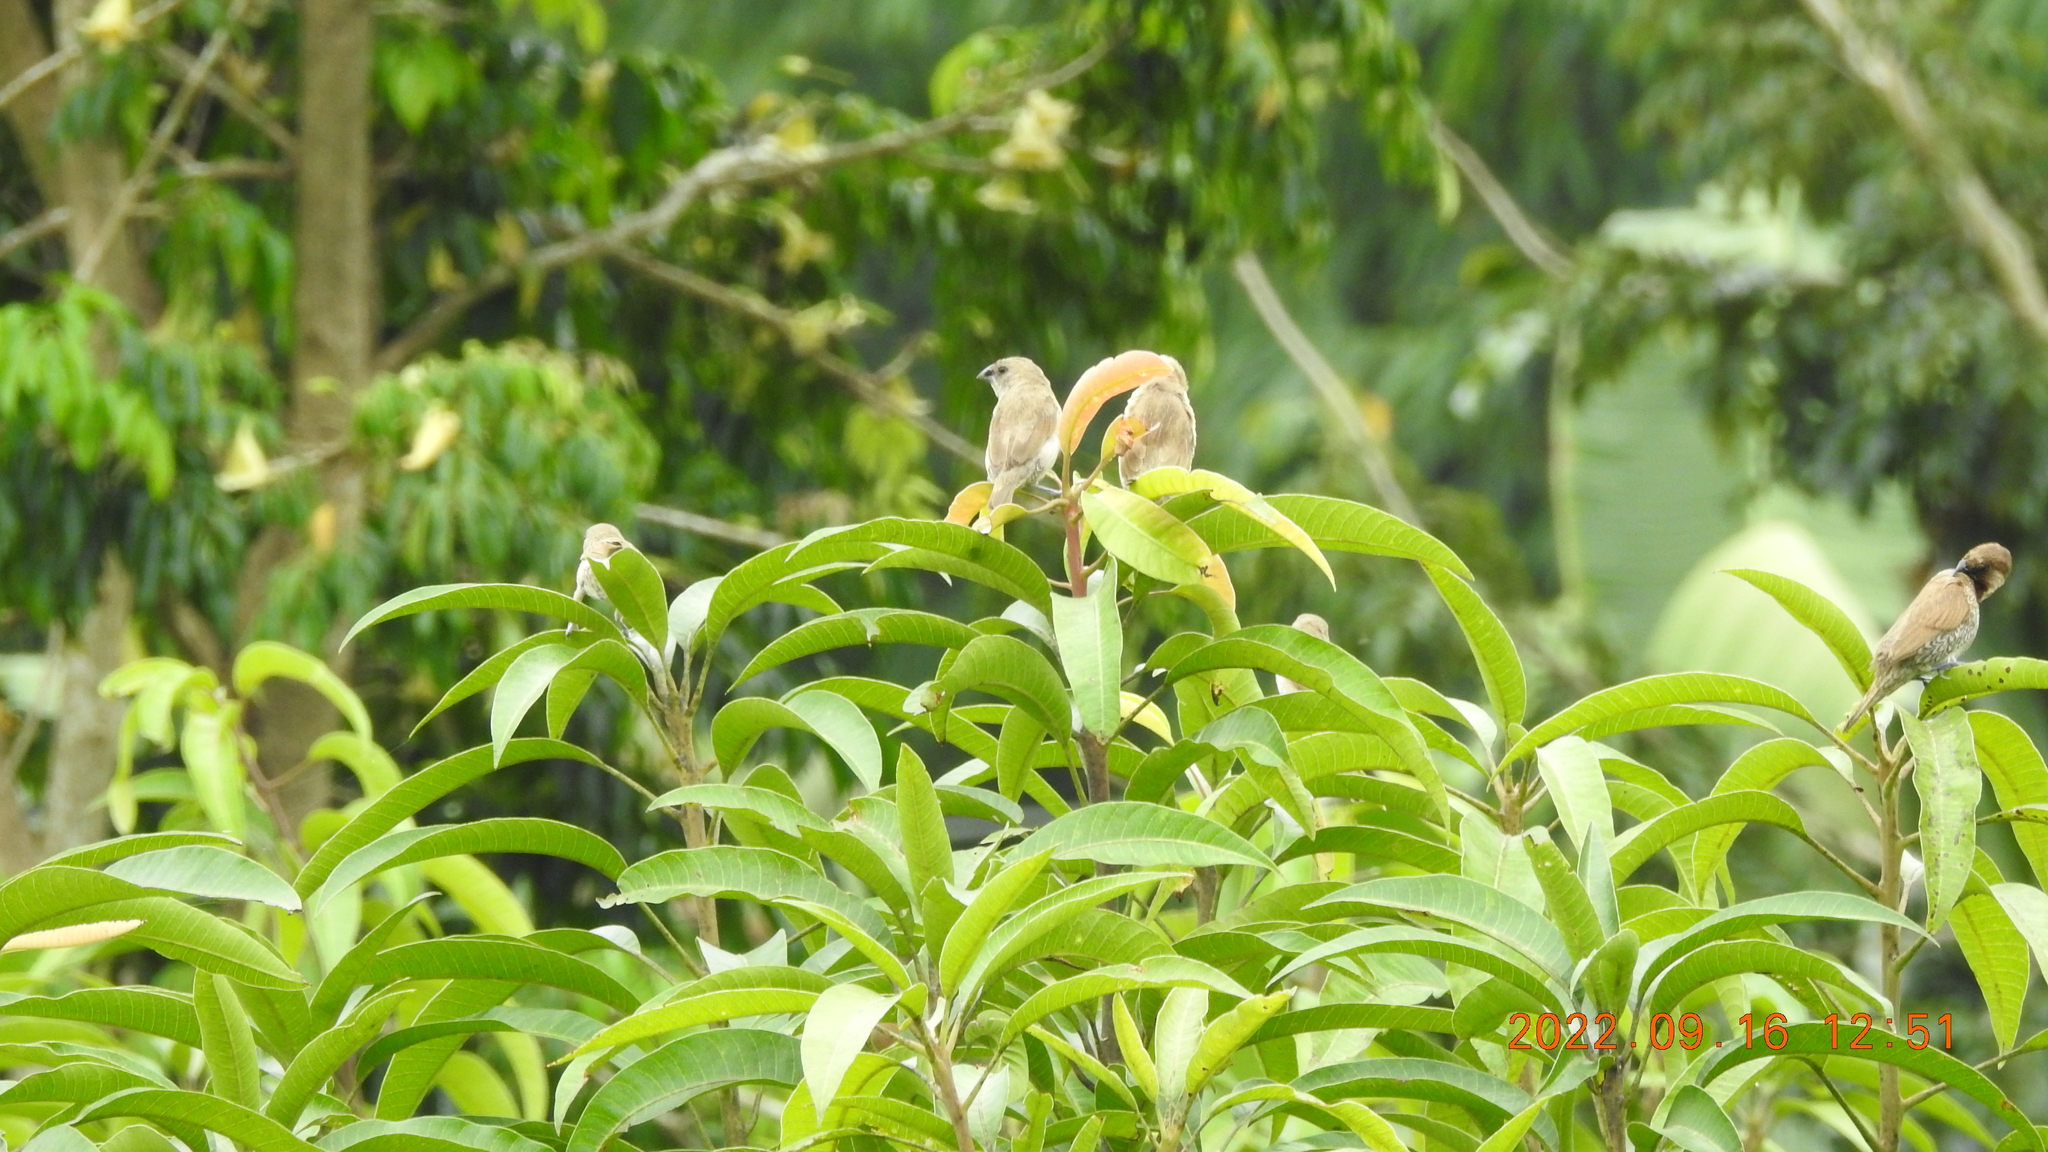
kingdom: Animalia
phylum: Chordata
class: Aves
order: Passeriformes
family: Estrildidae
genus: Lonchura
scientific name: Lonchura punctulata
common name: Scaly-breasted munia
